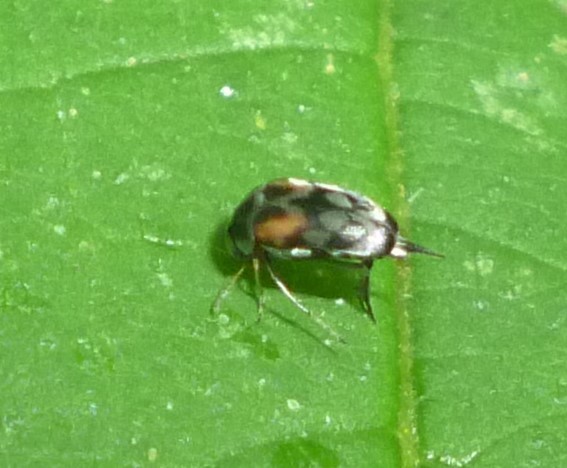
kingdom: Animalia
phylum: Arthropoda
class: Insecta
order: Coleoptera
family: Mordellidae
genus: Paramordellaria
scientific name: Paramordellaria carinata
